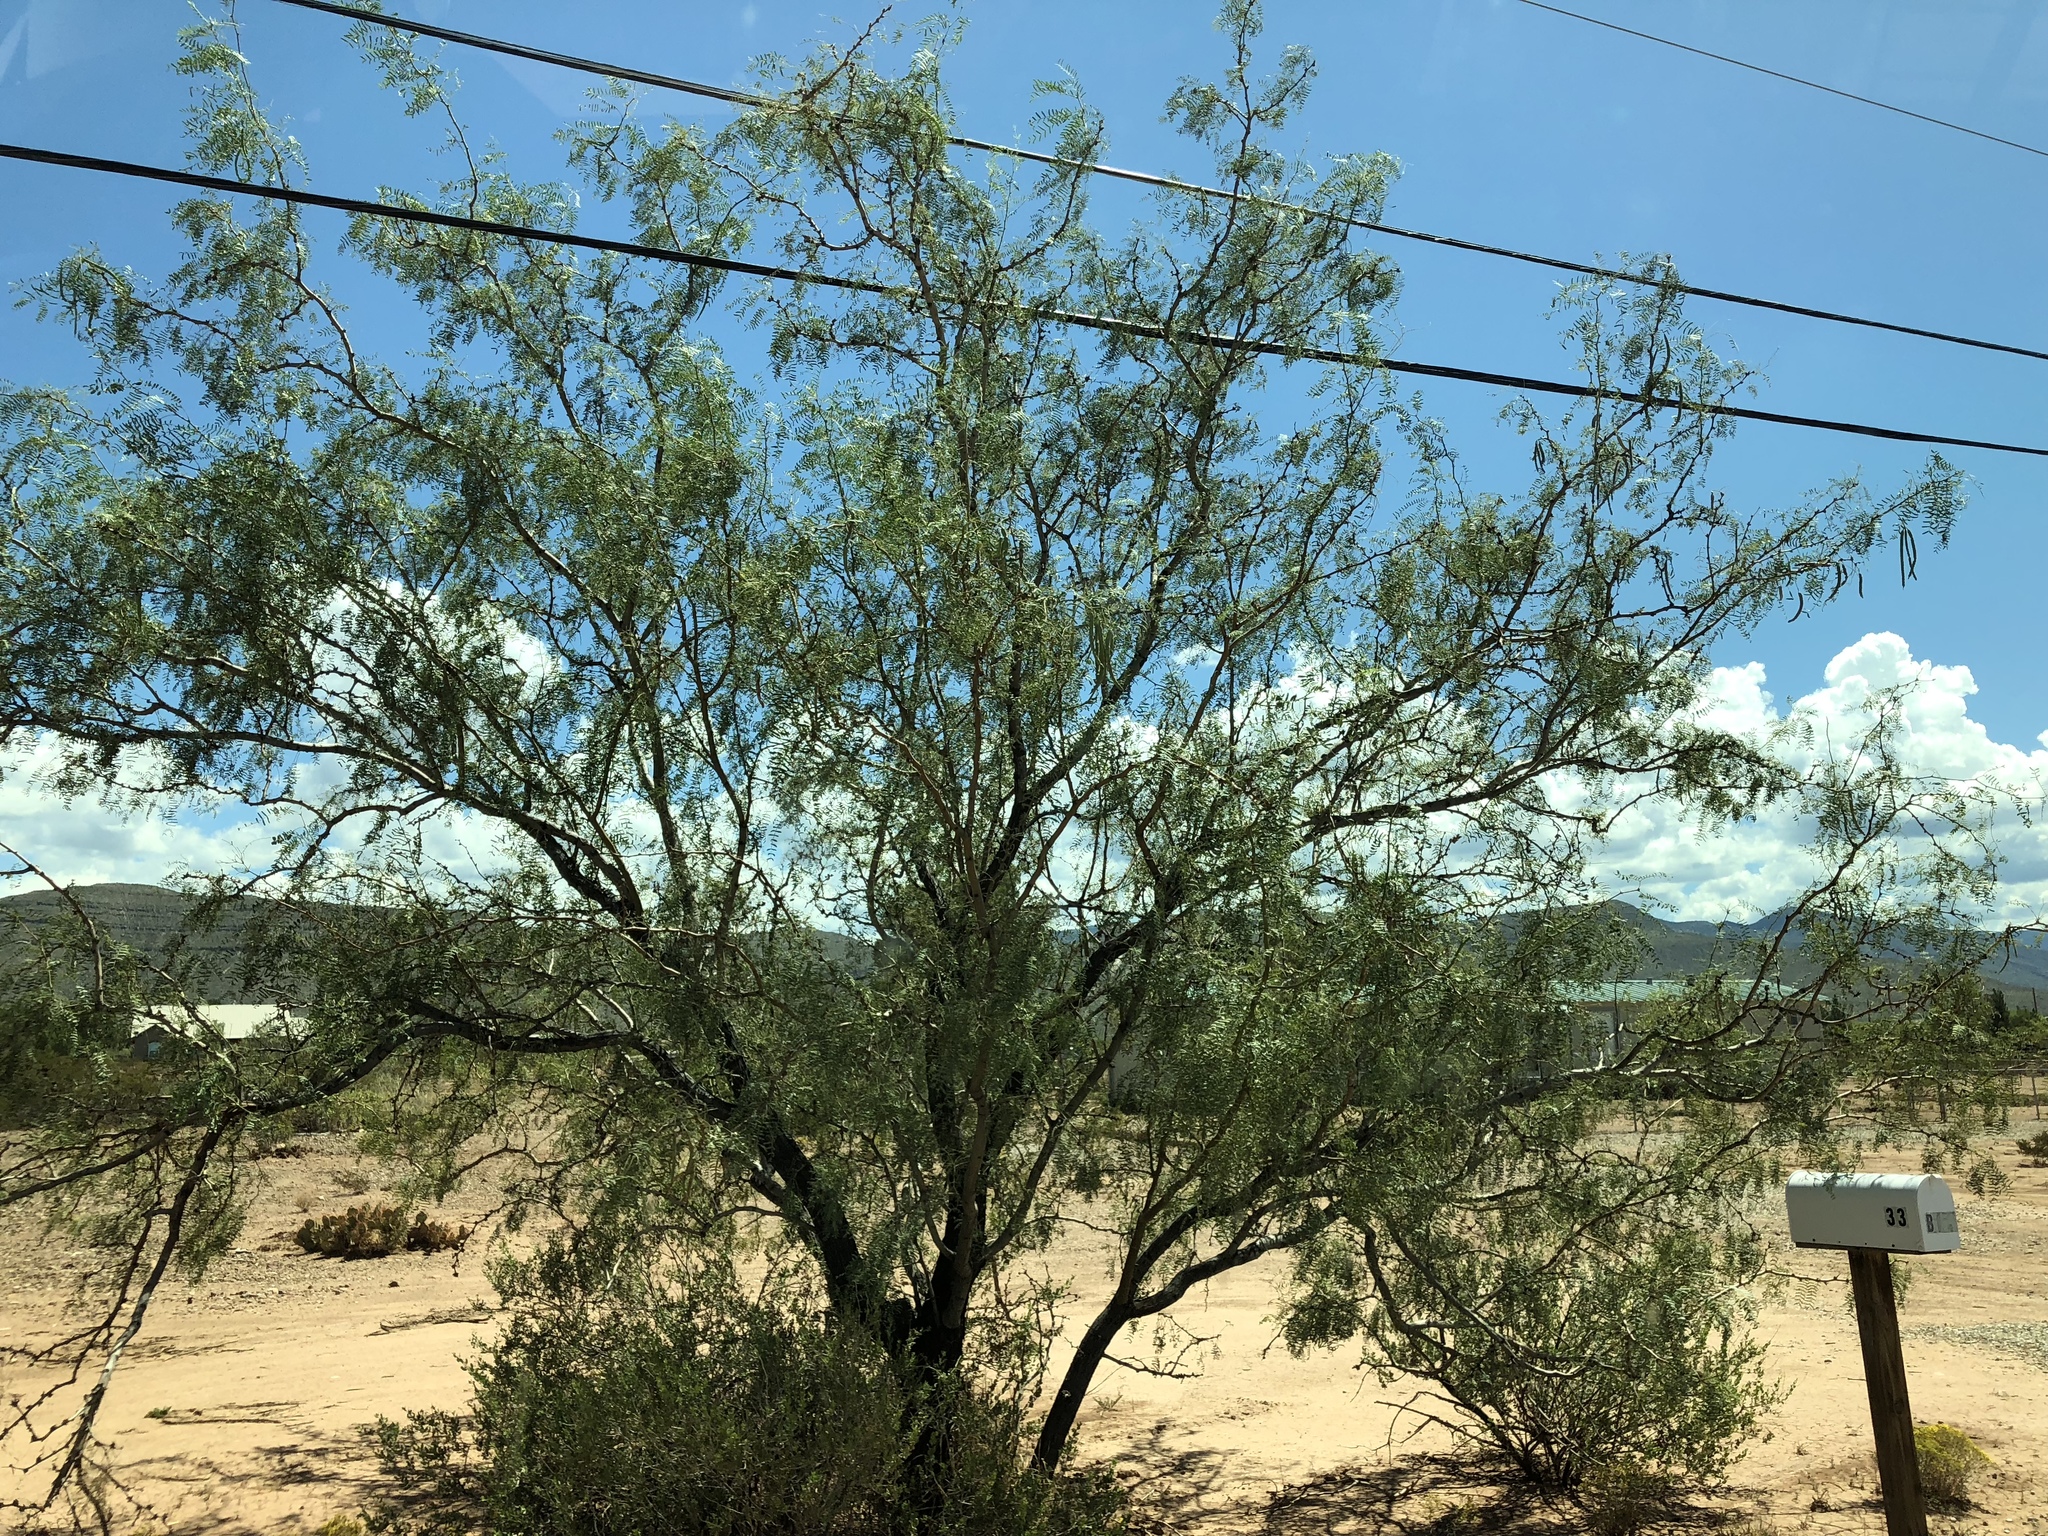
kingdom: Plantae
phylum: Tracheophyta
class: Magnoliopsida
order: Fabales
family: Fabaceae
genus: Prosopis
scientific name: Prosopis glandulosa
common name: Honey mesquite
